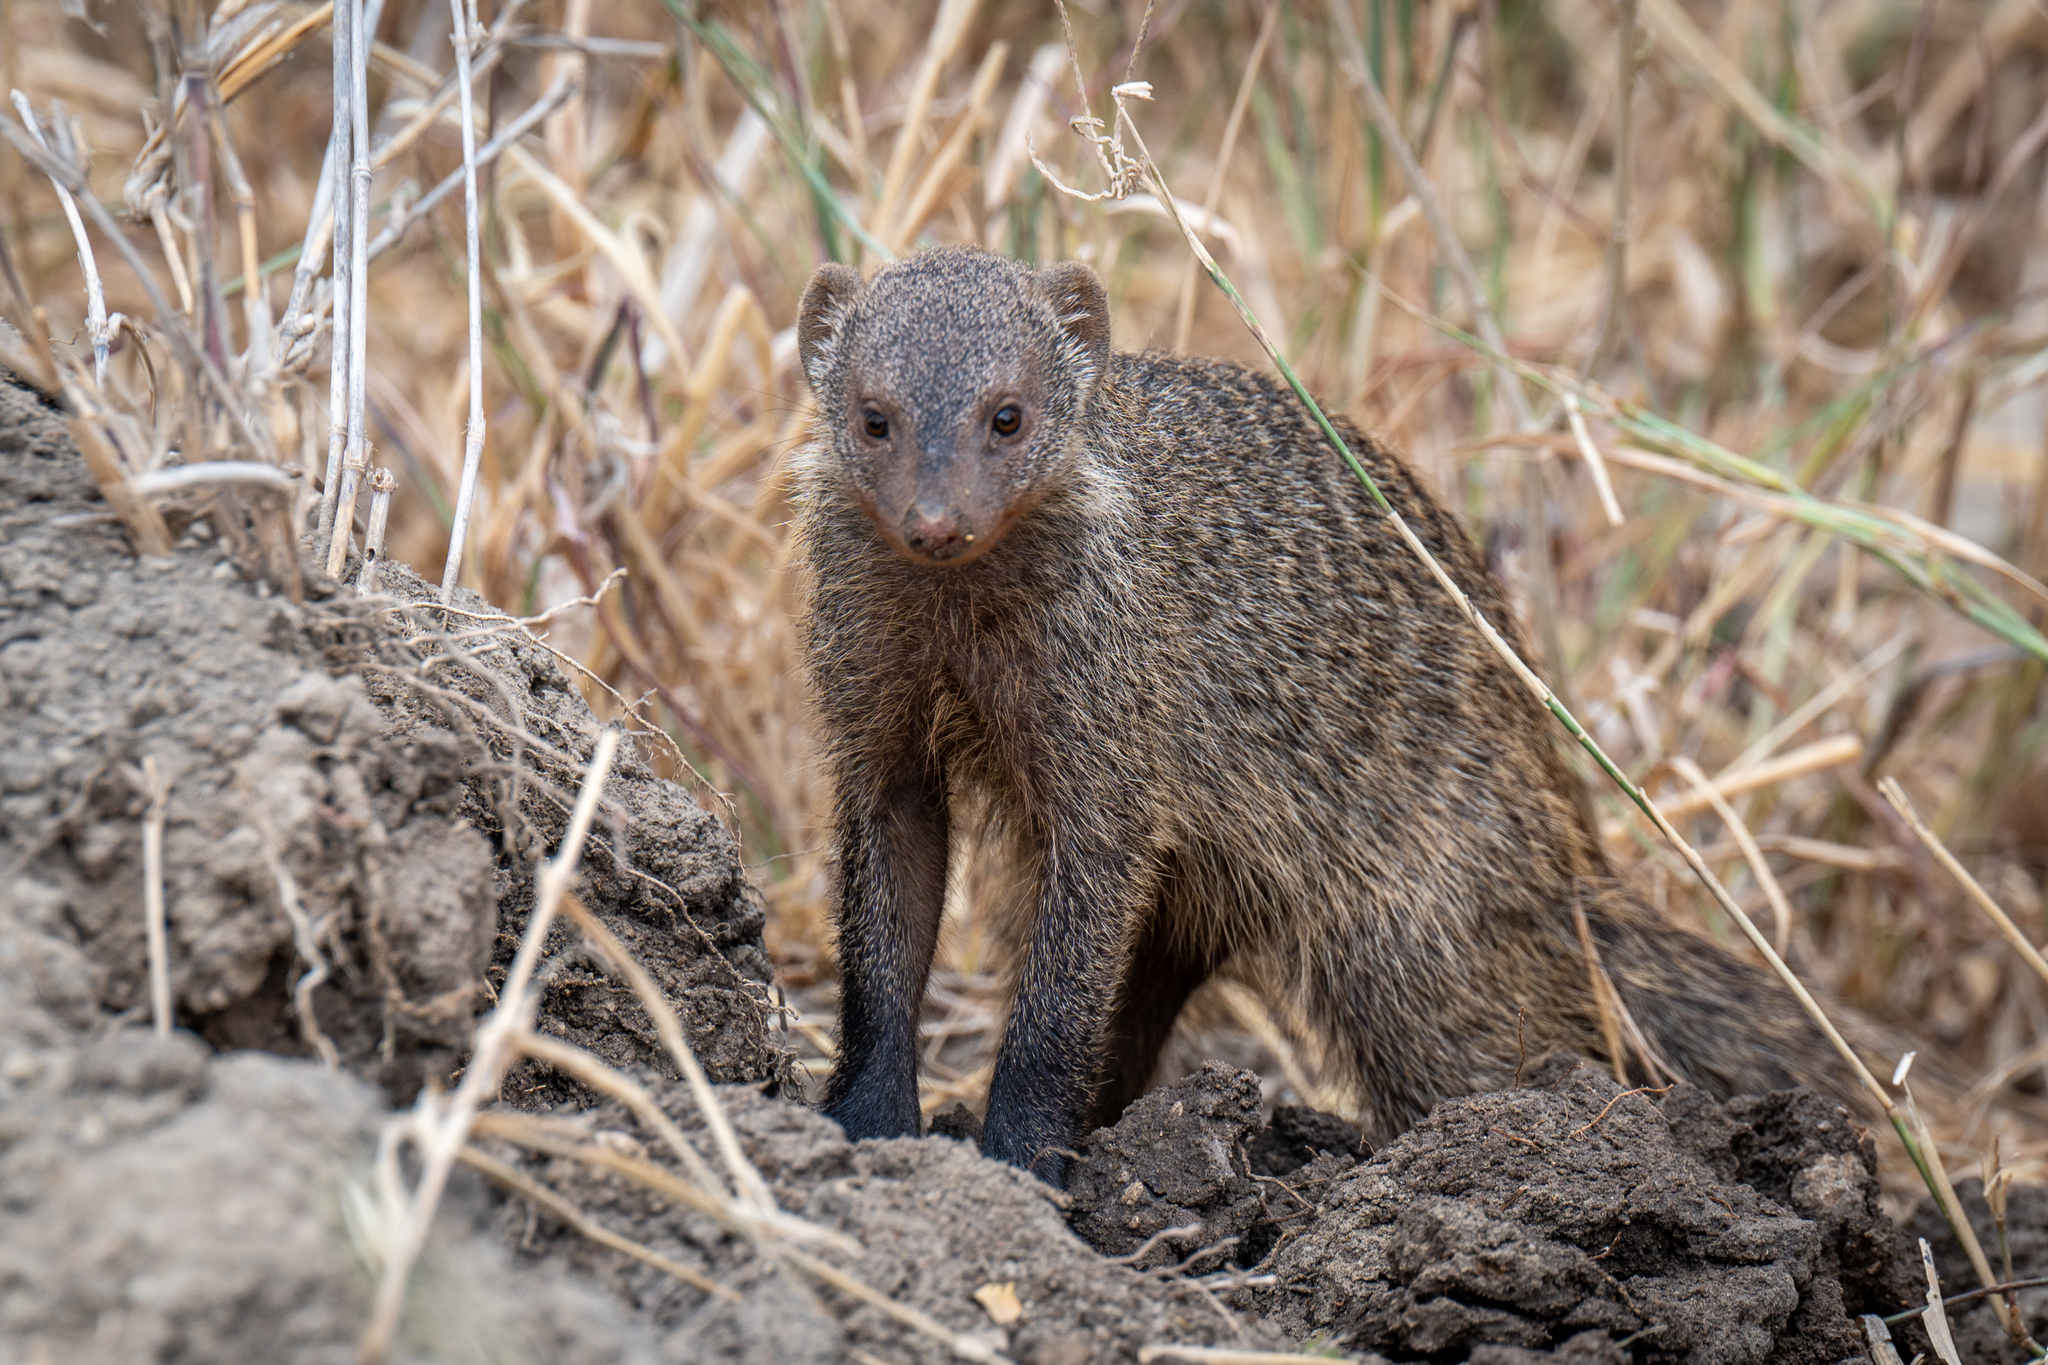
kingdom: Animalia
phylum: Chordata
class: Mammalia
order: Carnivora
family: Herpestidae
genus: Mungos
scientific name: Mungos mungo
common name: Banded mongoose
